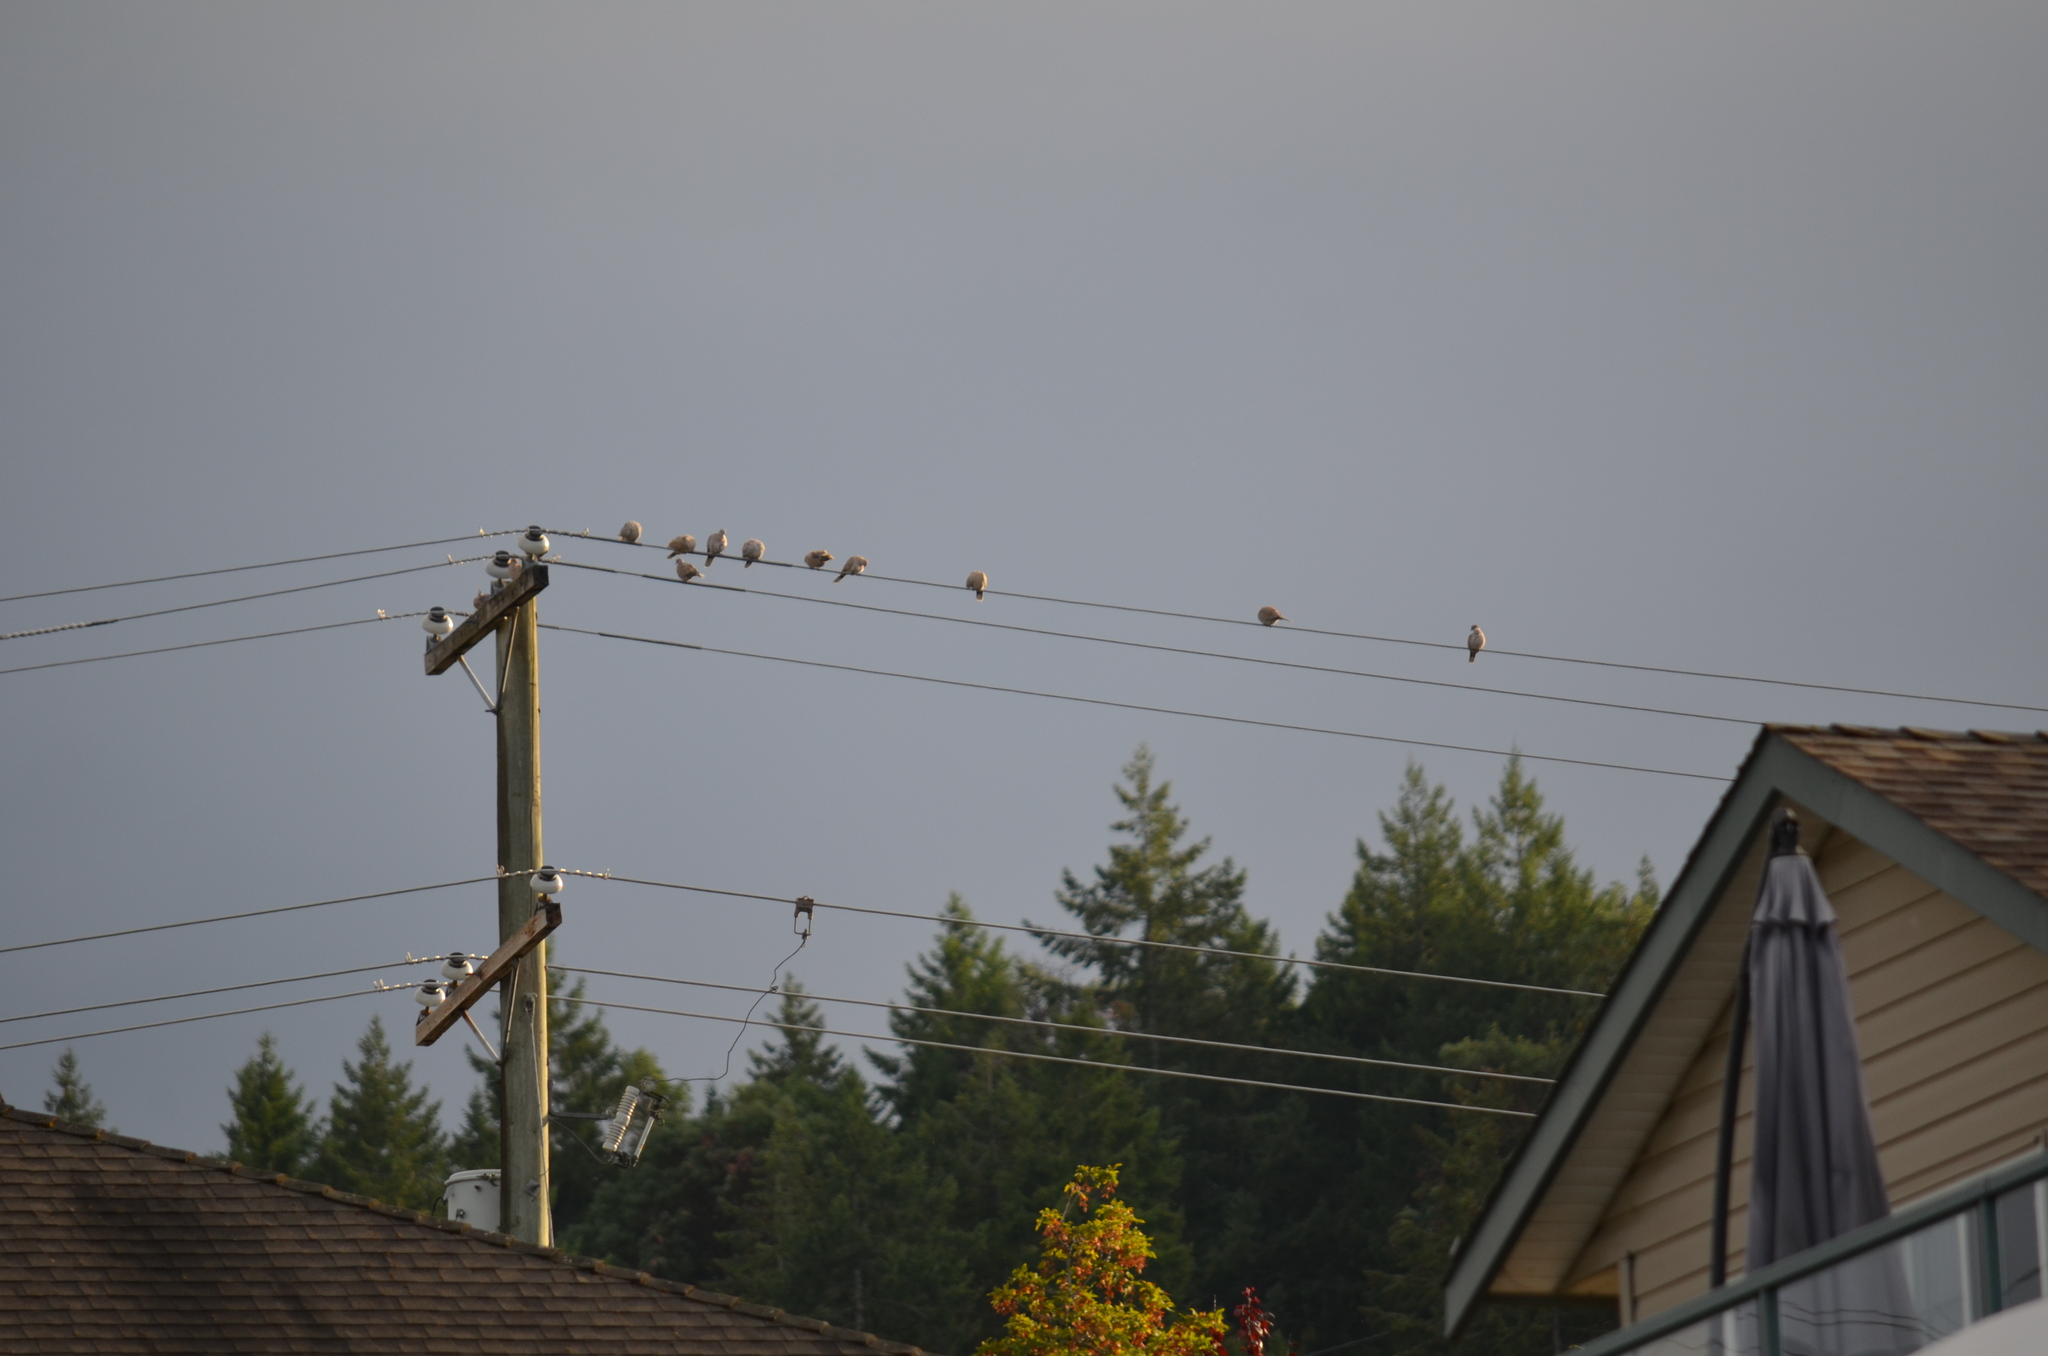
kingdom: Animalia
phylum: Chordata
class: Aves
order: Columbiformes
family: Columbidae
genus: Streptopelia
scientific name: Streptopelia decaocto
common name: Eurasian collared dove
